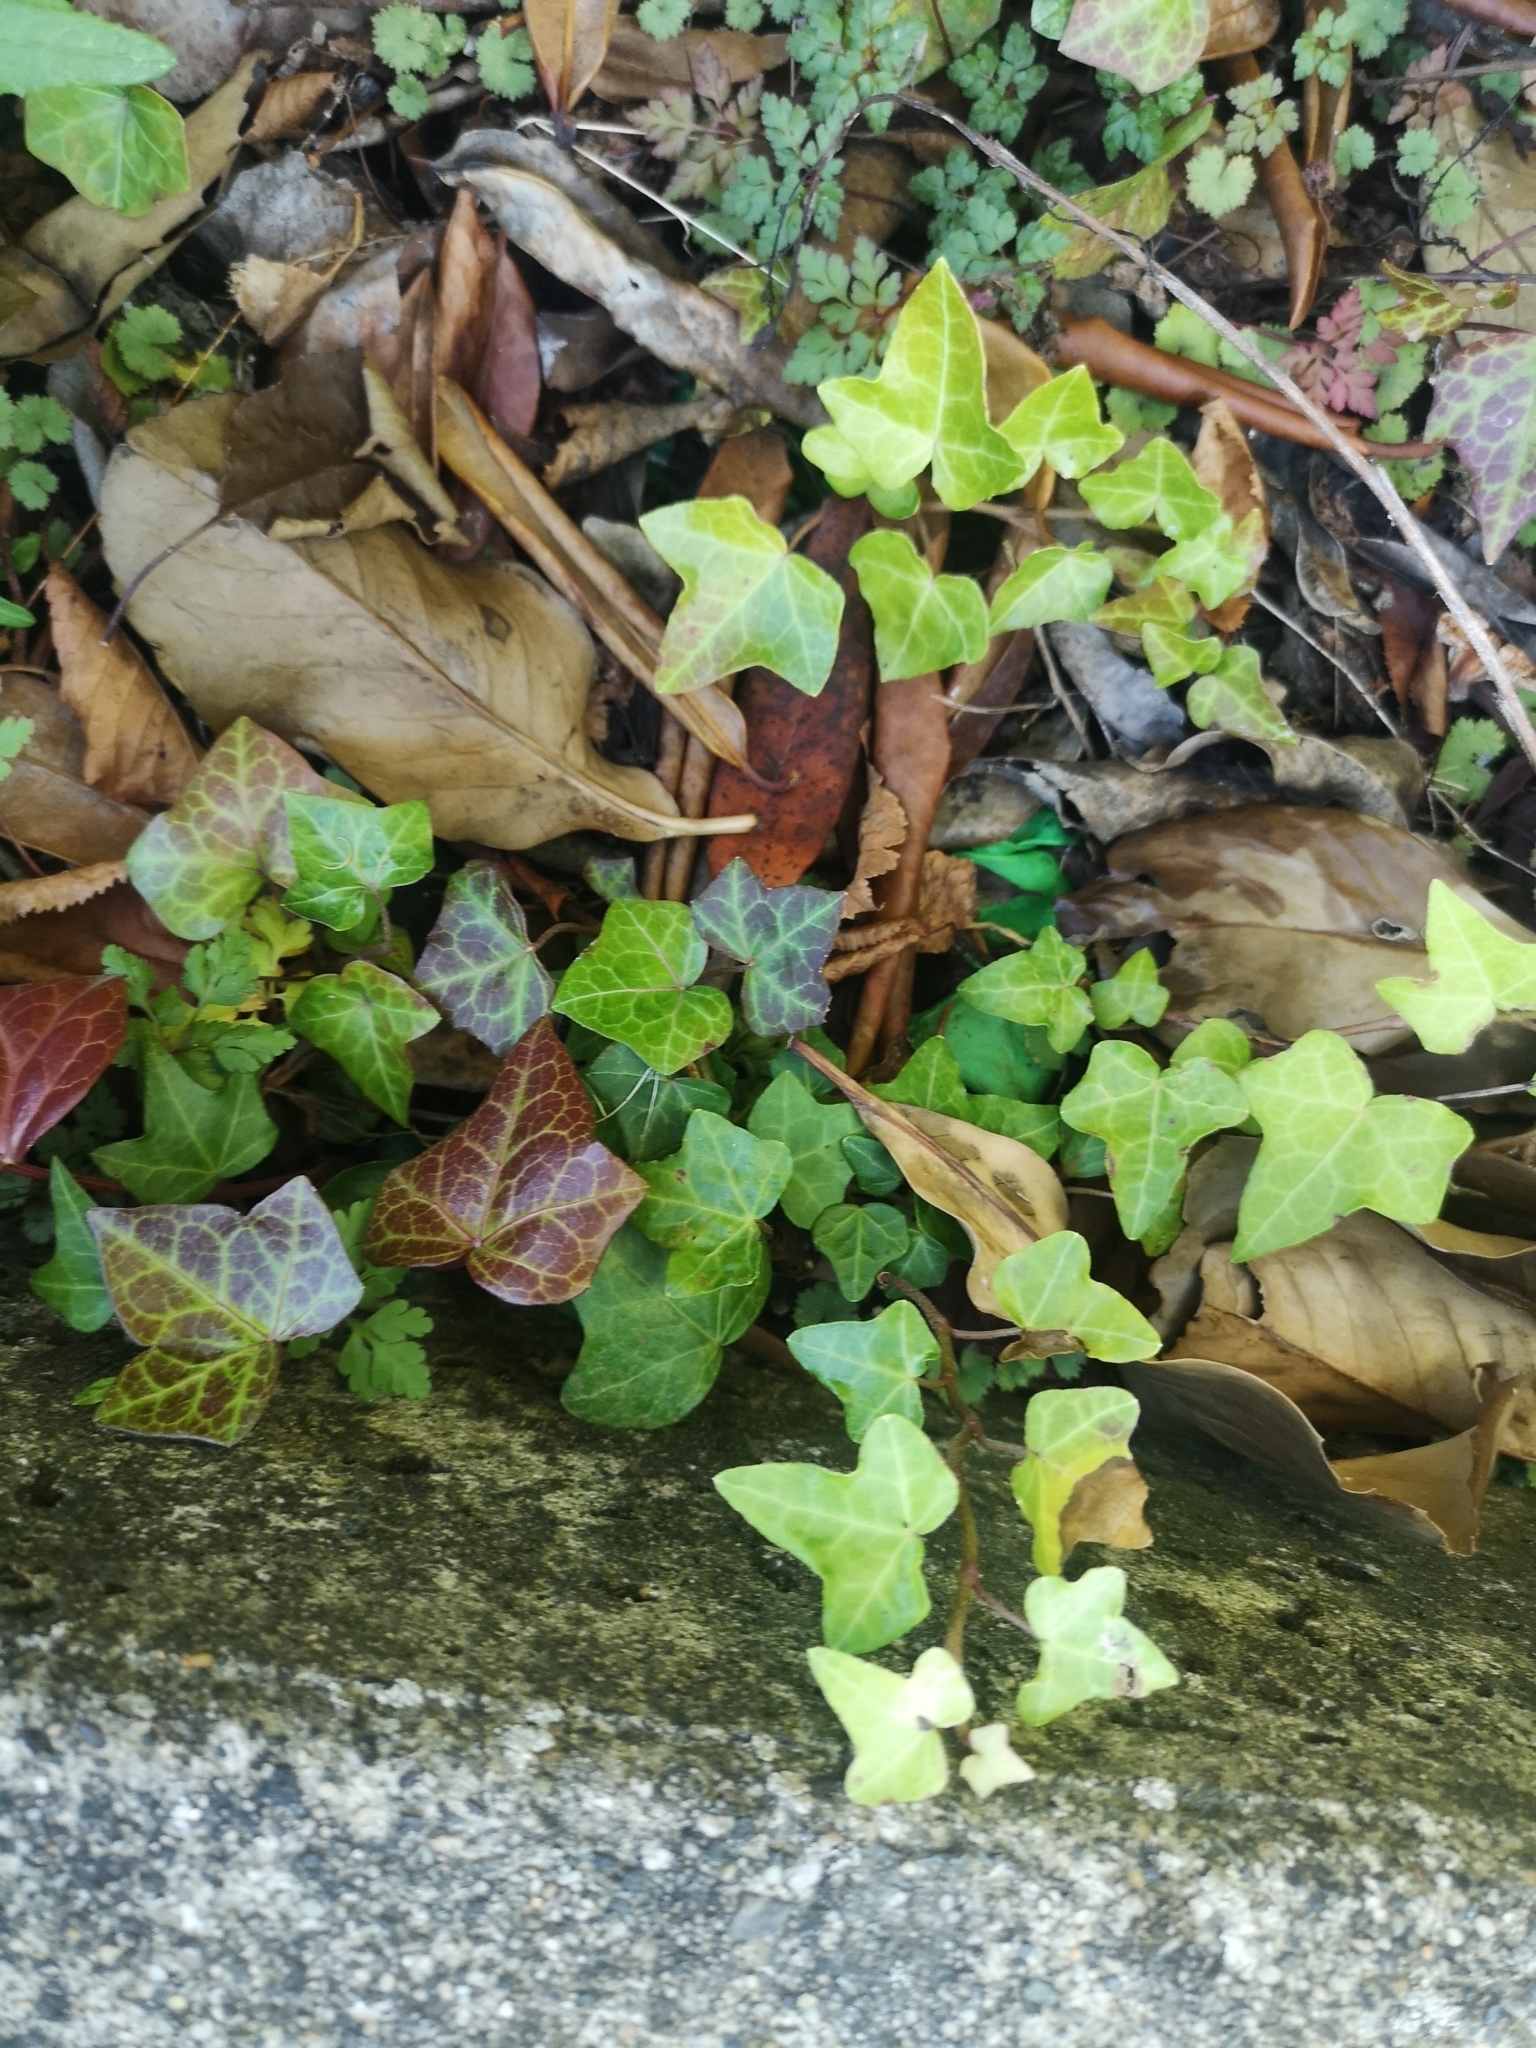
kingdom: Plantae
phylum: Tracheophyta
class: Magnoliopsida
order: Apiales
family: Araliaceae
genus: Hedera
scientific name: Hedera helix
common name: Ivy
